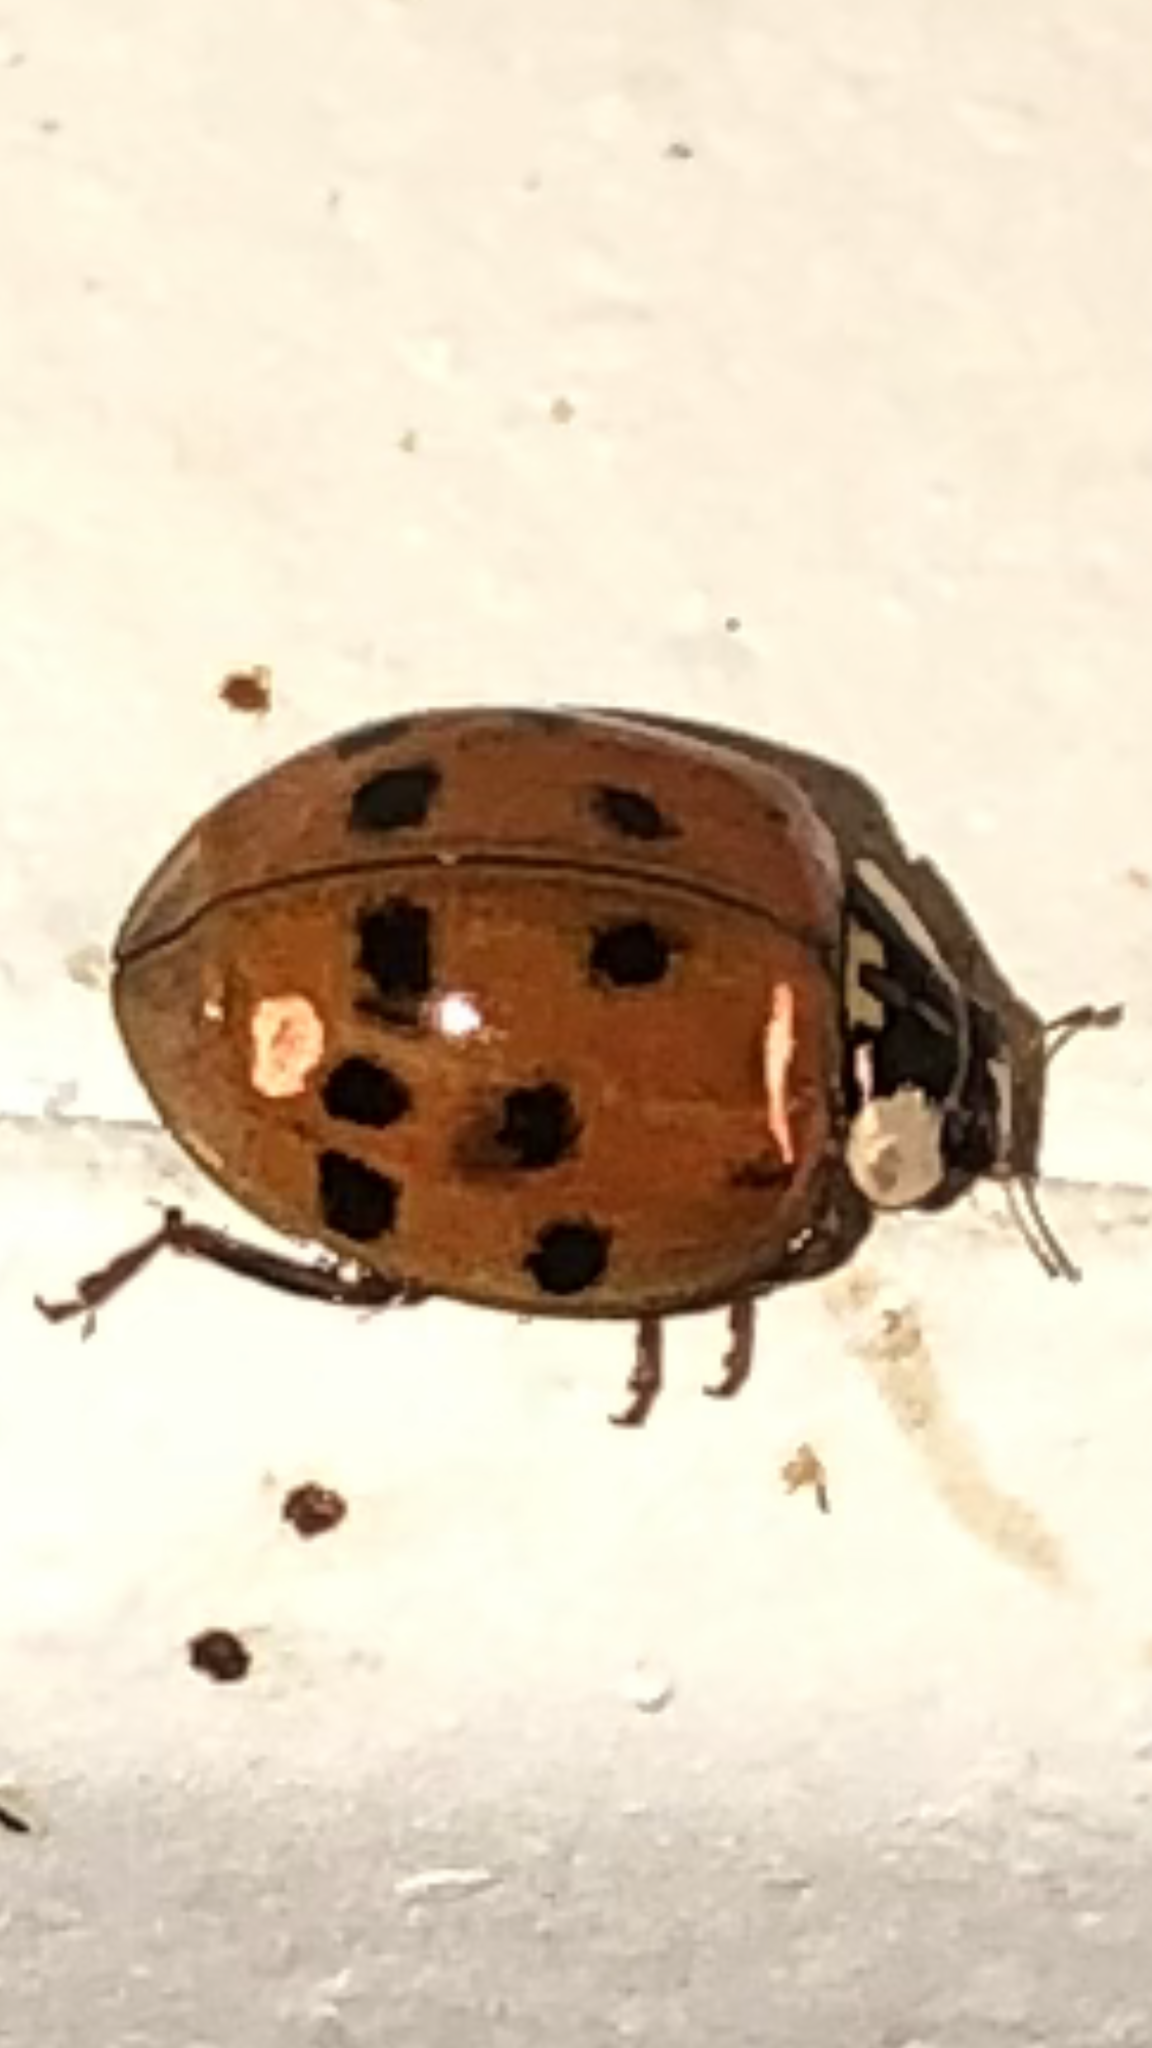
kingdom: Animalia
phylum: Arthropoda
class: Insecta
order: Coleoptera
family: Coccinellidae
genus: Harmonia
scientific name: Harmonia axyridis
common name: Harlequin ladybird
